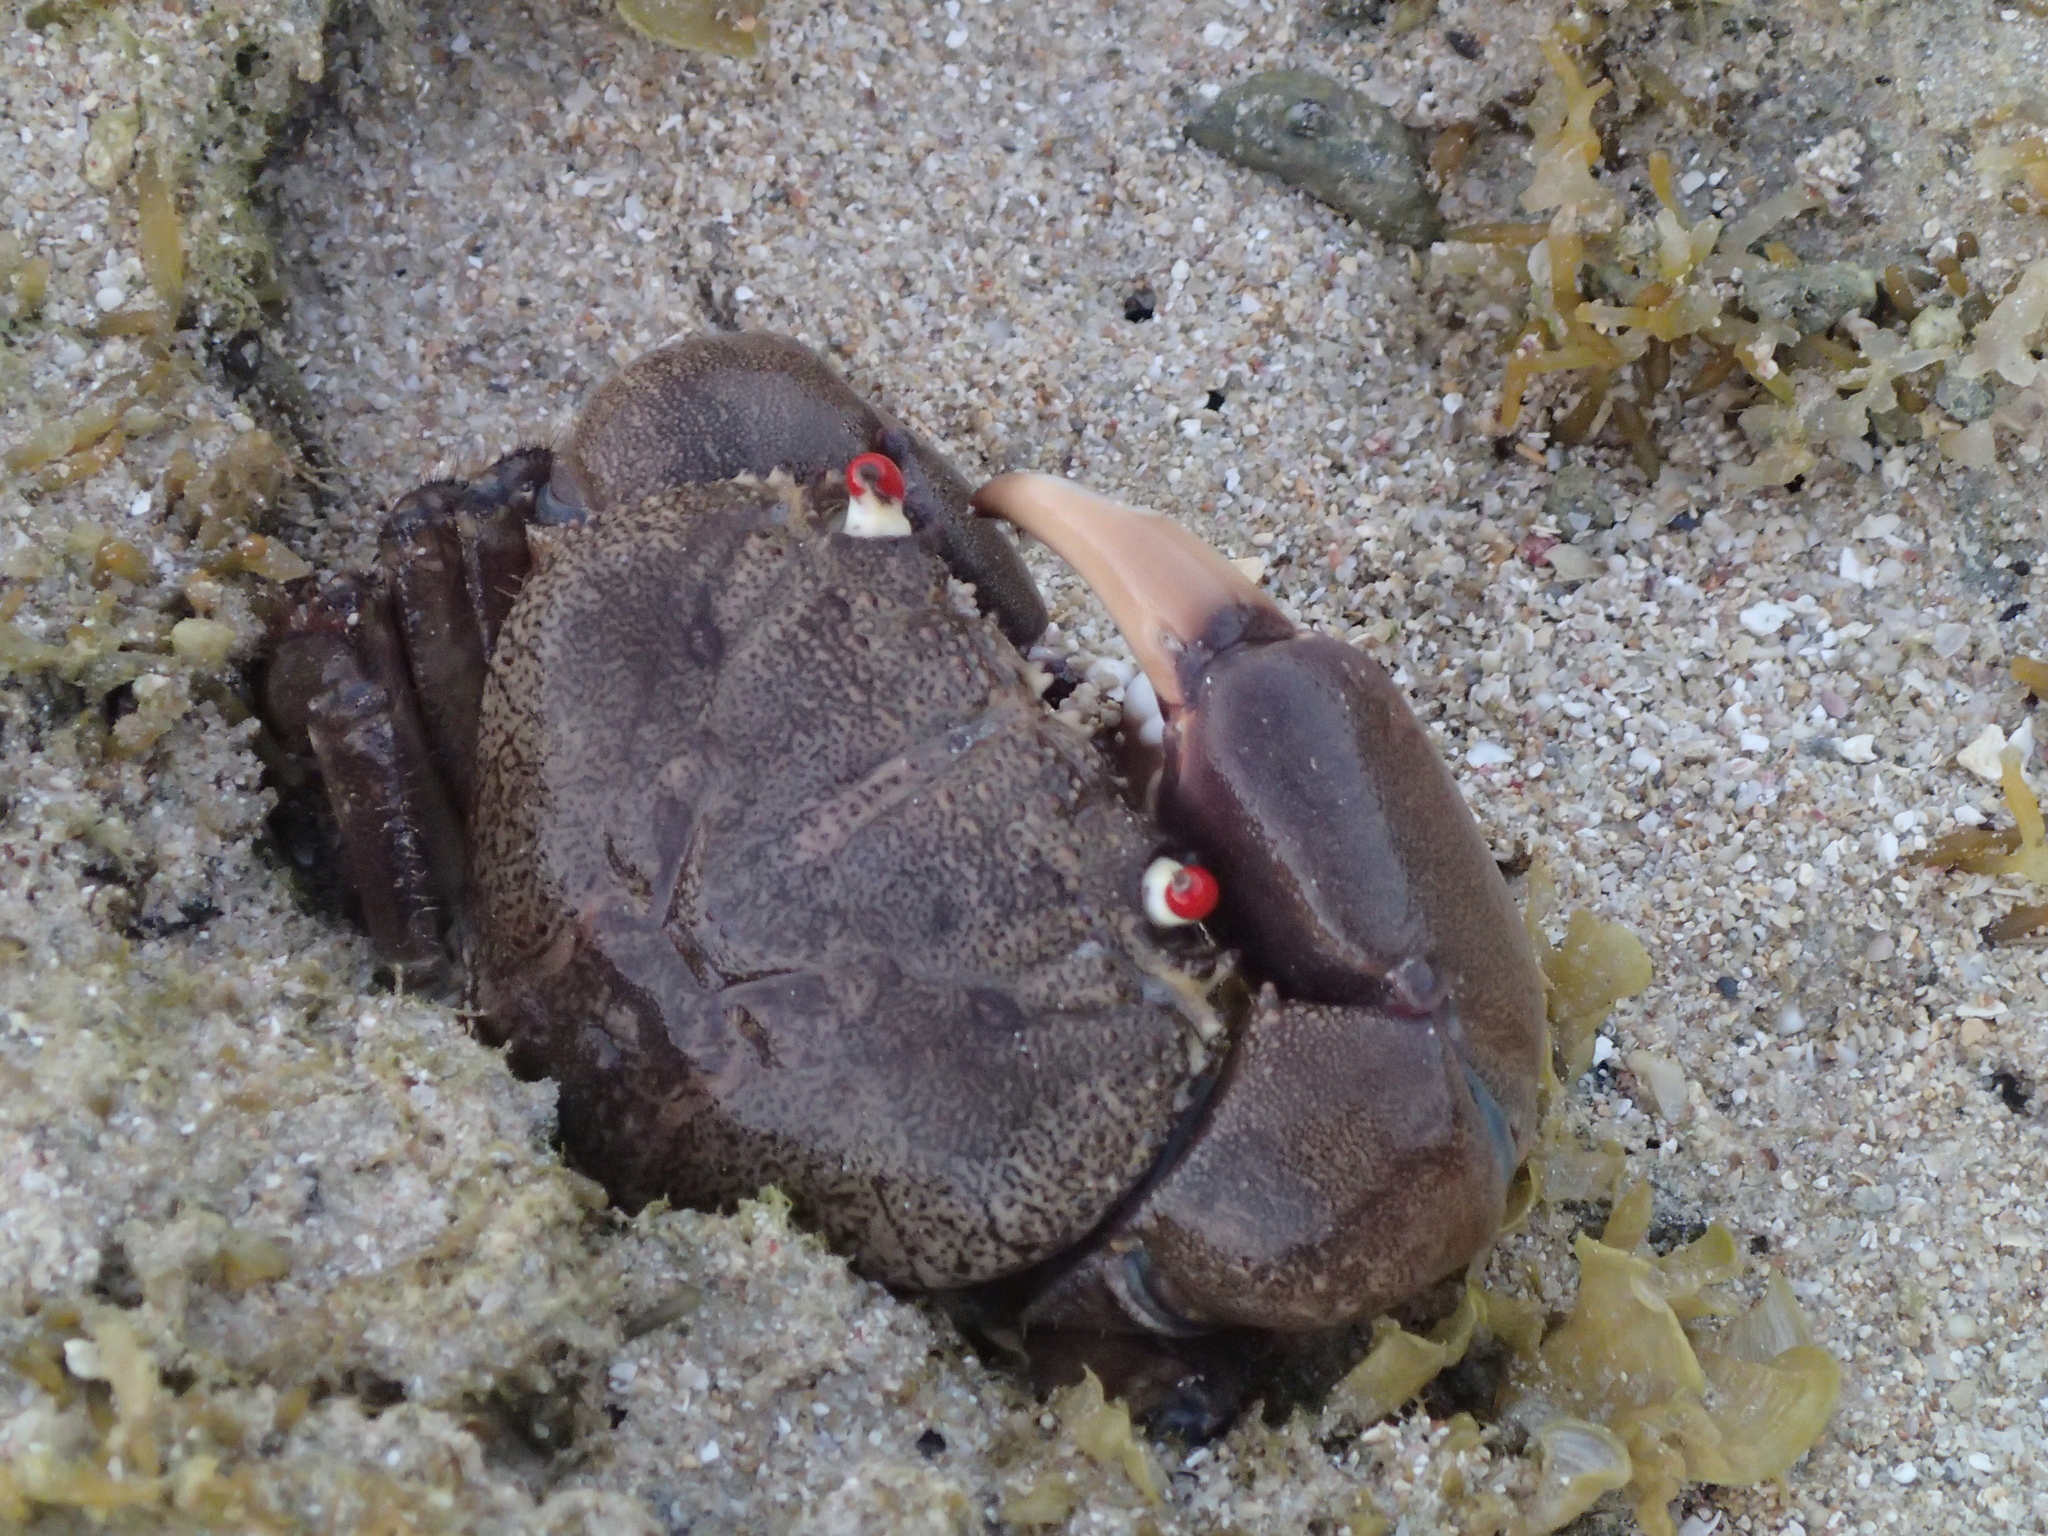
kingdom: Animalia
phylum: Arthropoda
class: Malacostraca
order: Decapoda
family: Eriphiidae
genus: Eriphia
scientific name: Eriphia sebana
